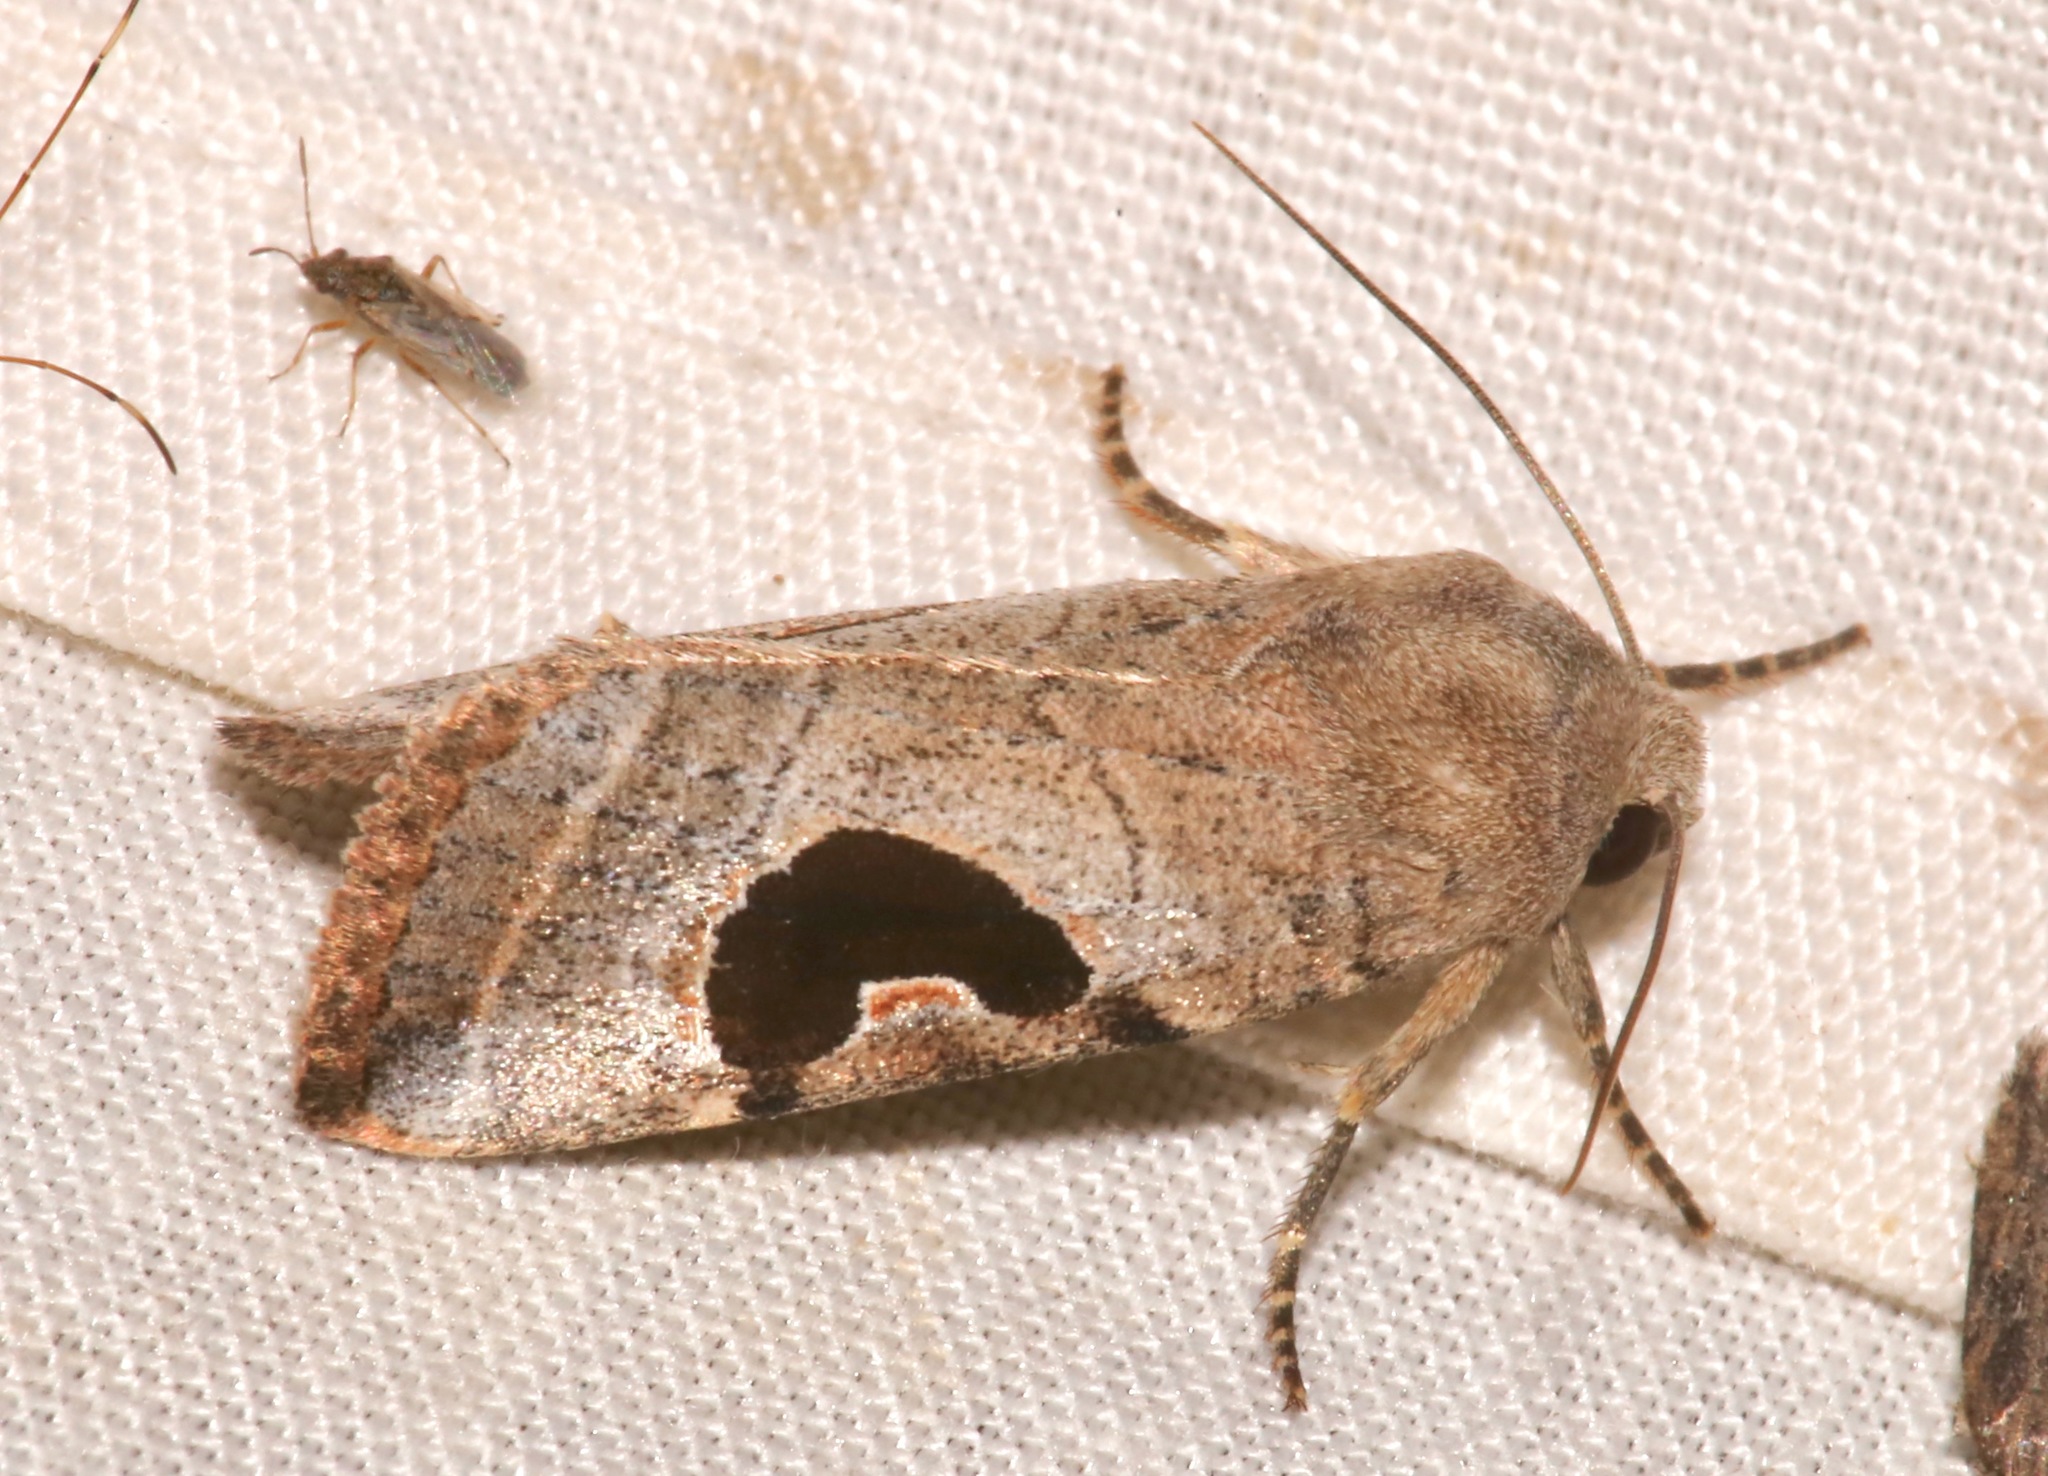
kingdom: Animalia
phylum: Arthropoda
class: Insecta
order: Lepidoptera
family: Noctuidae
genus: Eriopyga
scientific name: Eriopyga lunata
